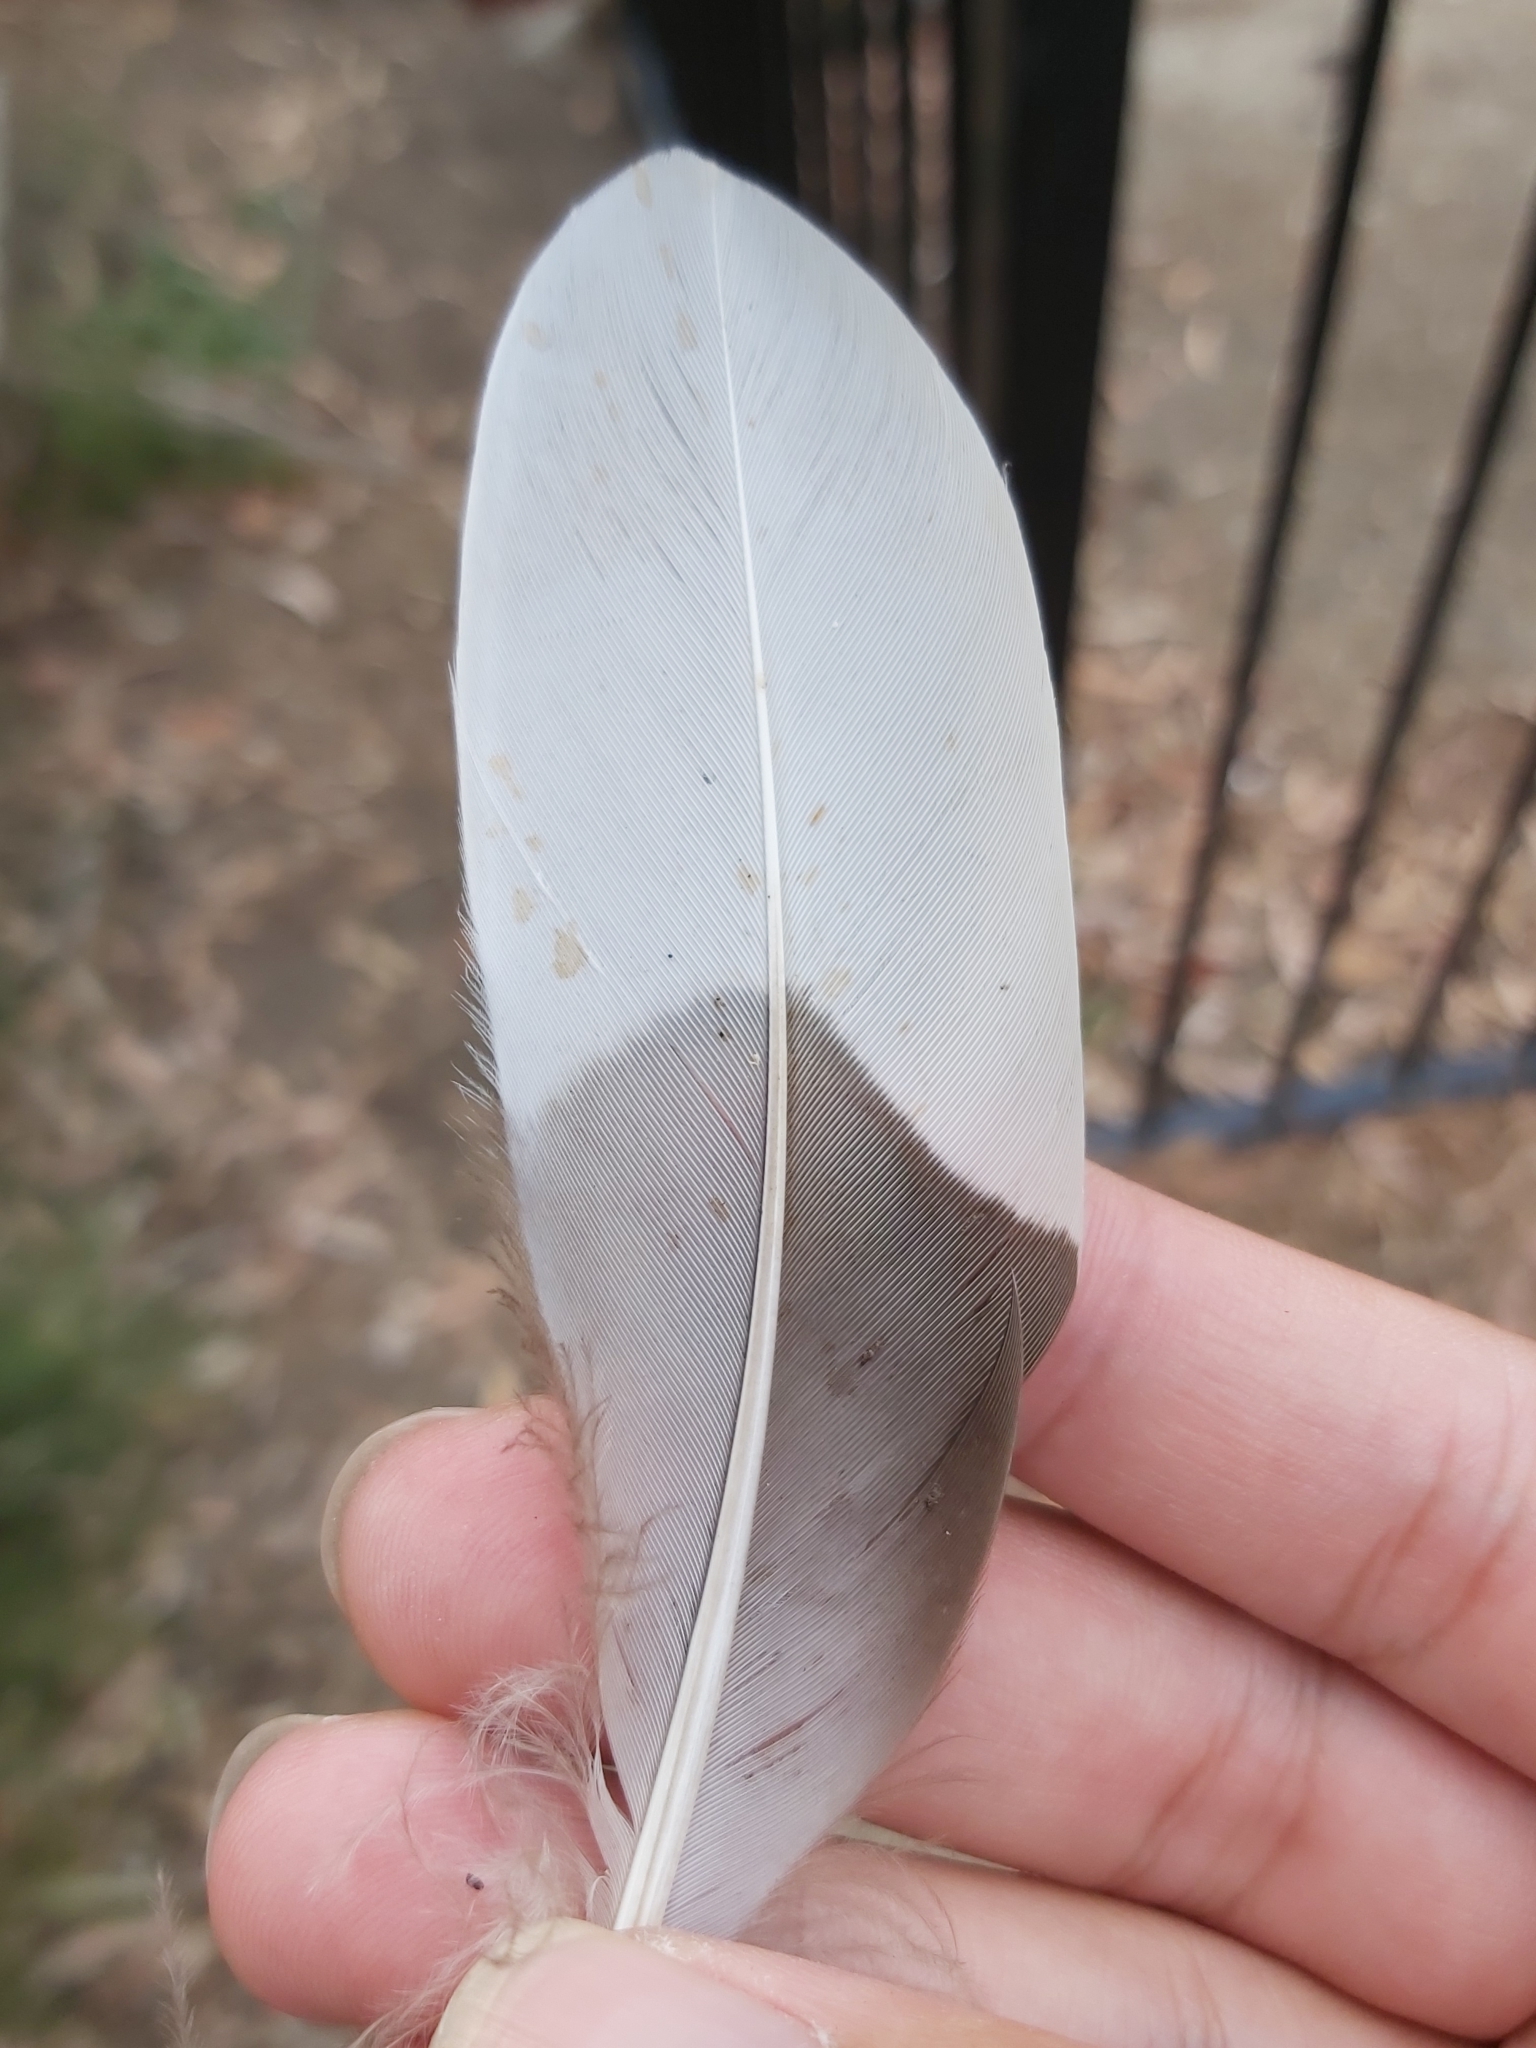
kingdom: Animalia
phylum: Chordata
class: Aves
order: Anseriformes
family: Anatidae
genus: Chenonetta
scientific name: Chenonetta jubata
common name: Maned duck
